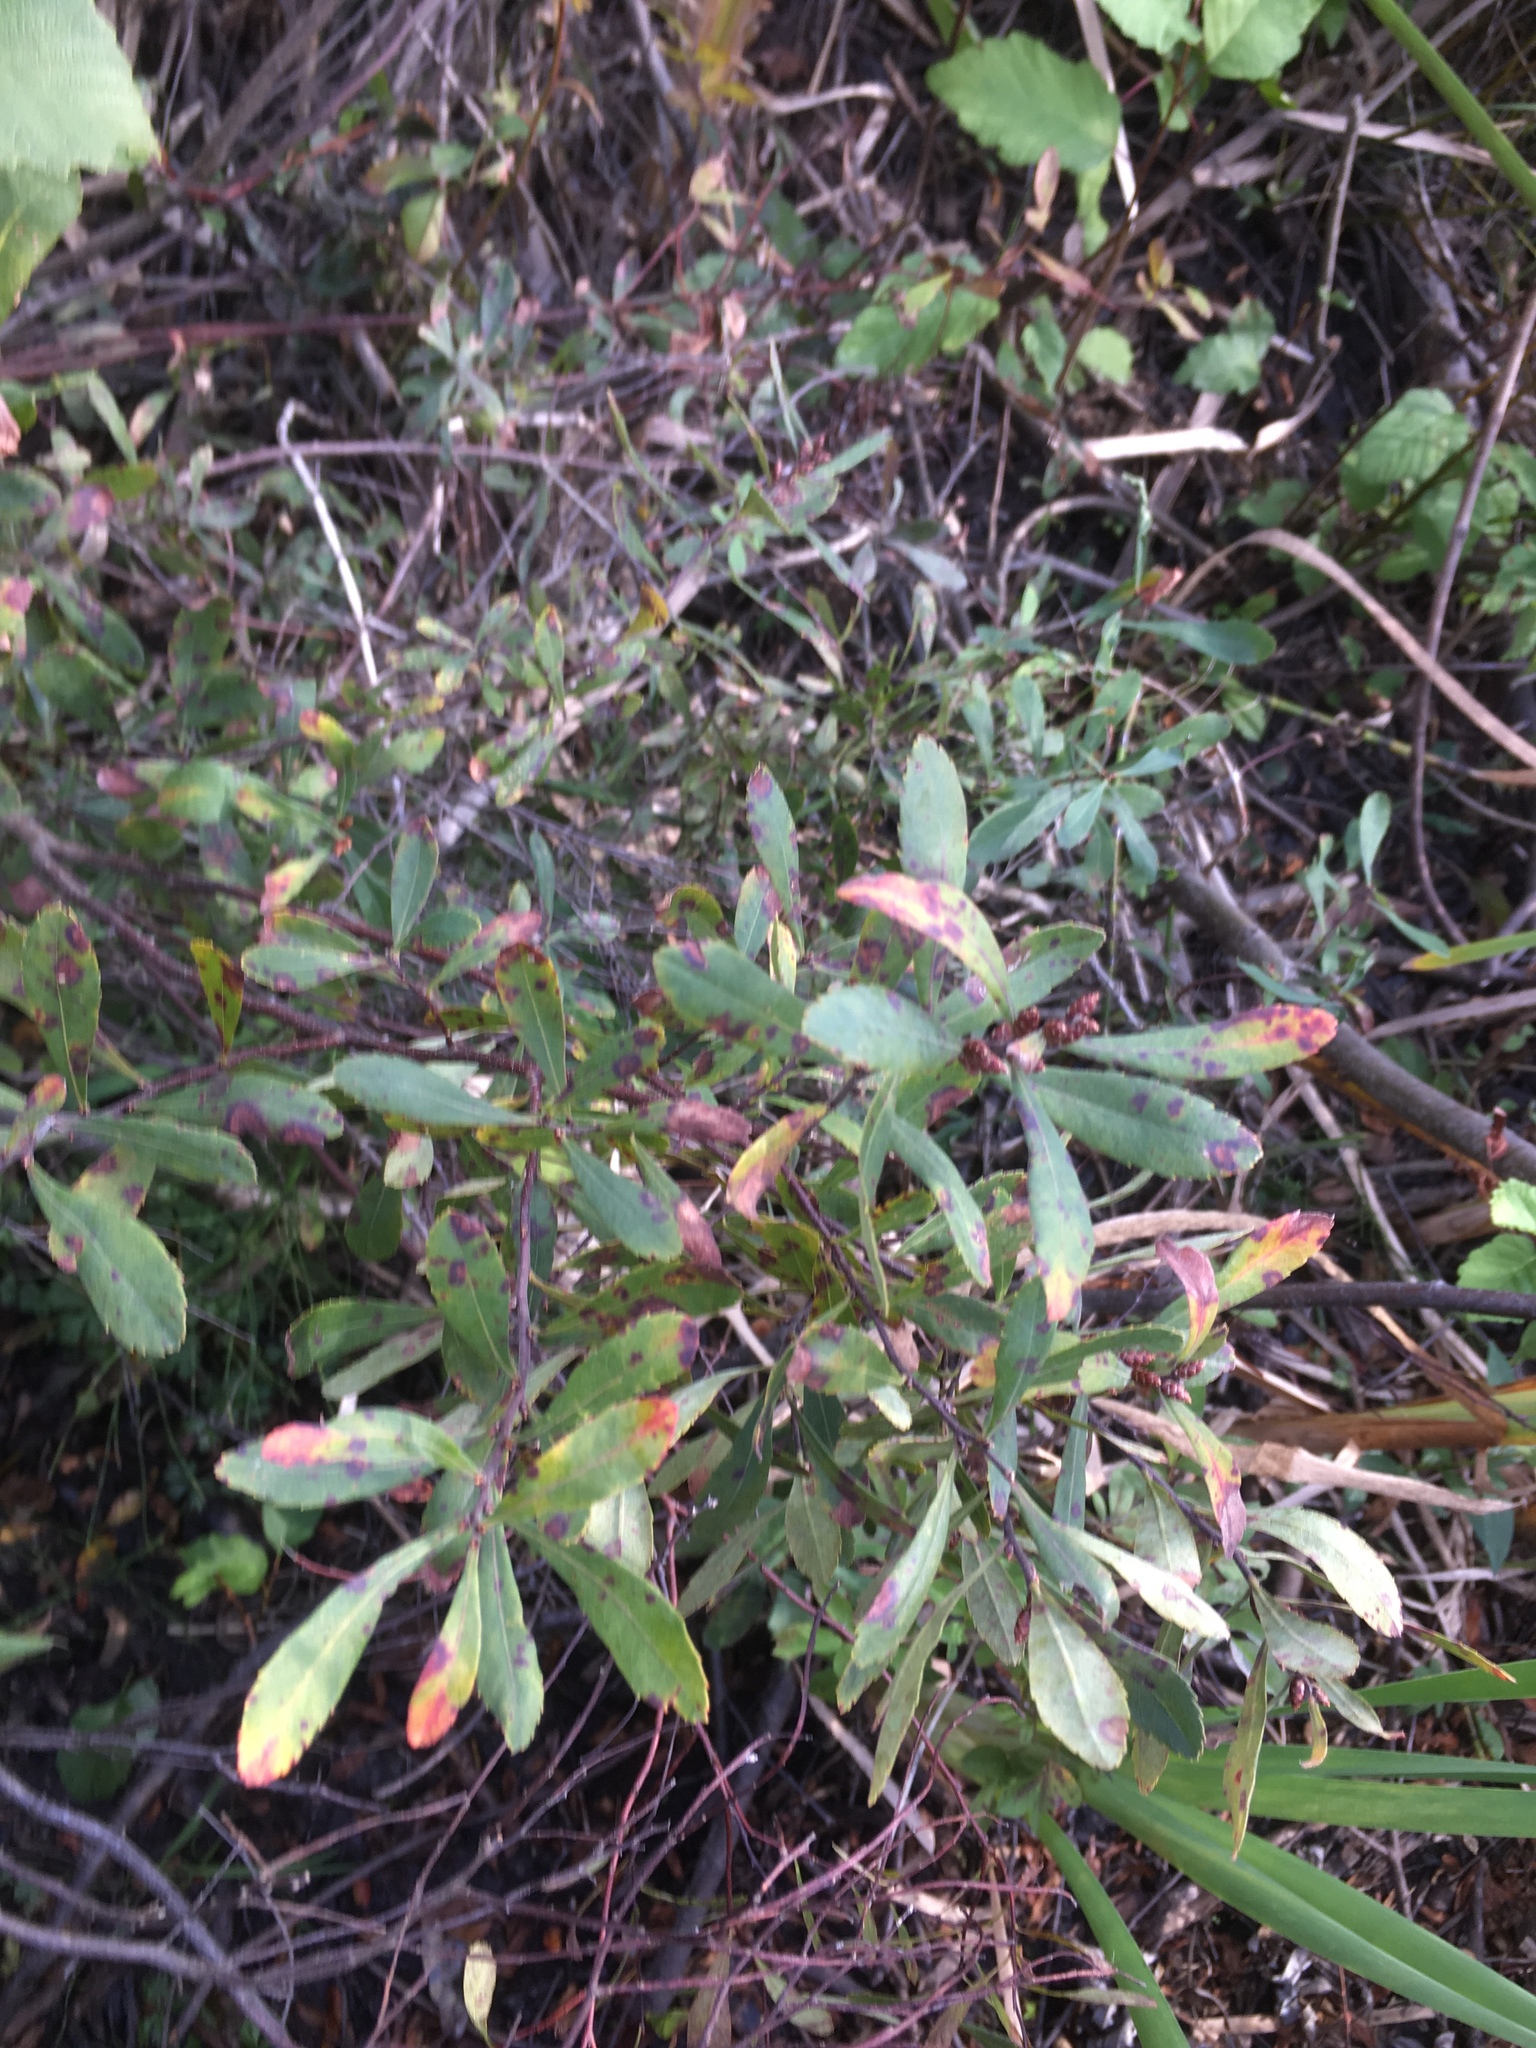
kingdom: Plantae
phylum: Tracheophyta
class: Magnoliopsida
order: Fagales
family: Myricaceae
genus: Myrica
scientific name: Myrica gale
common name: Sweet gale
